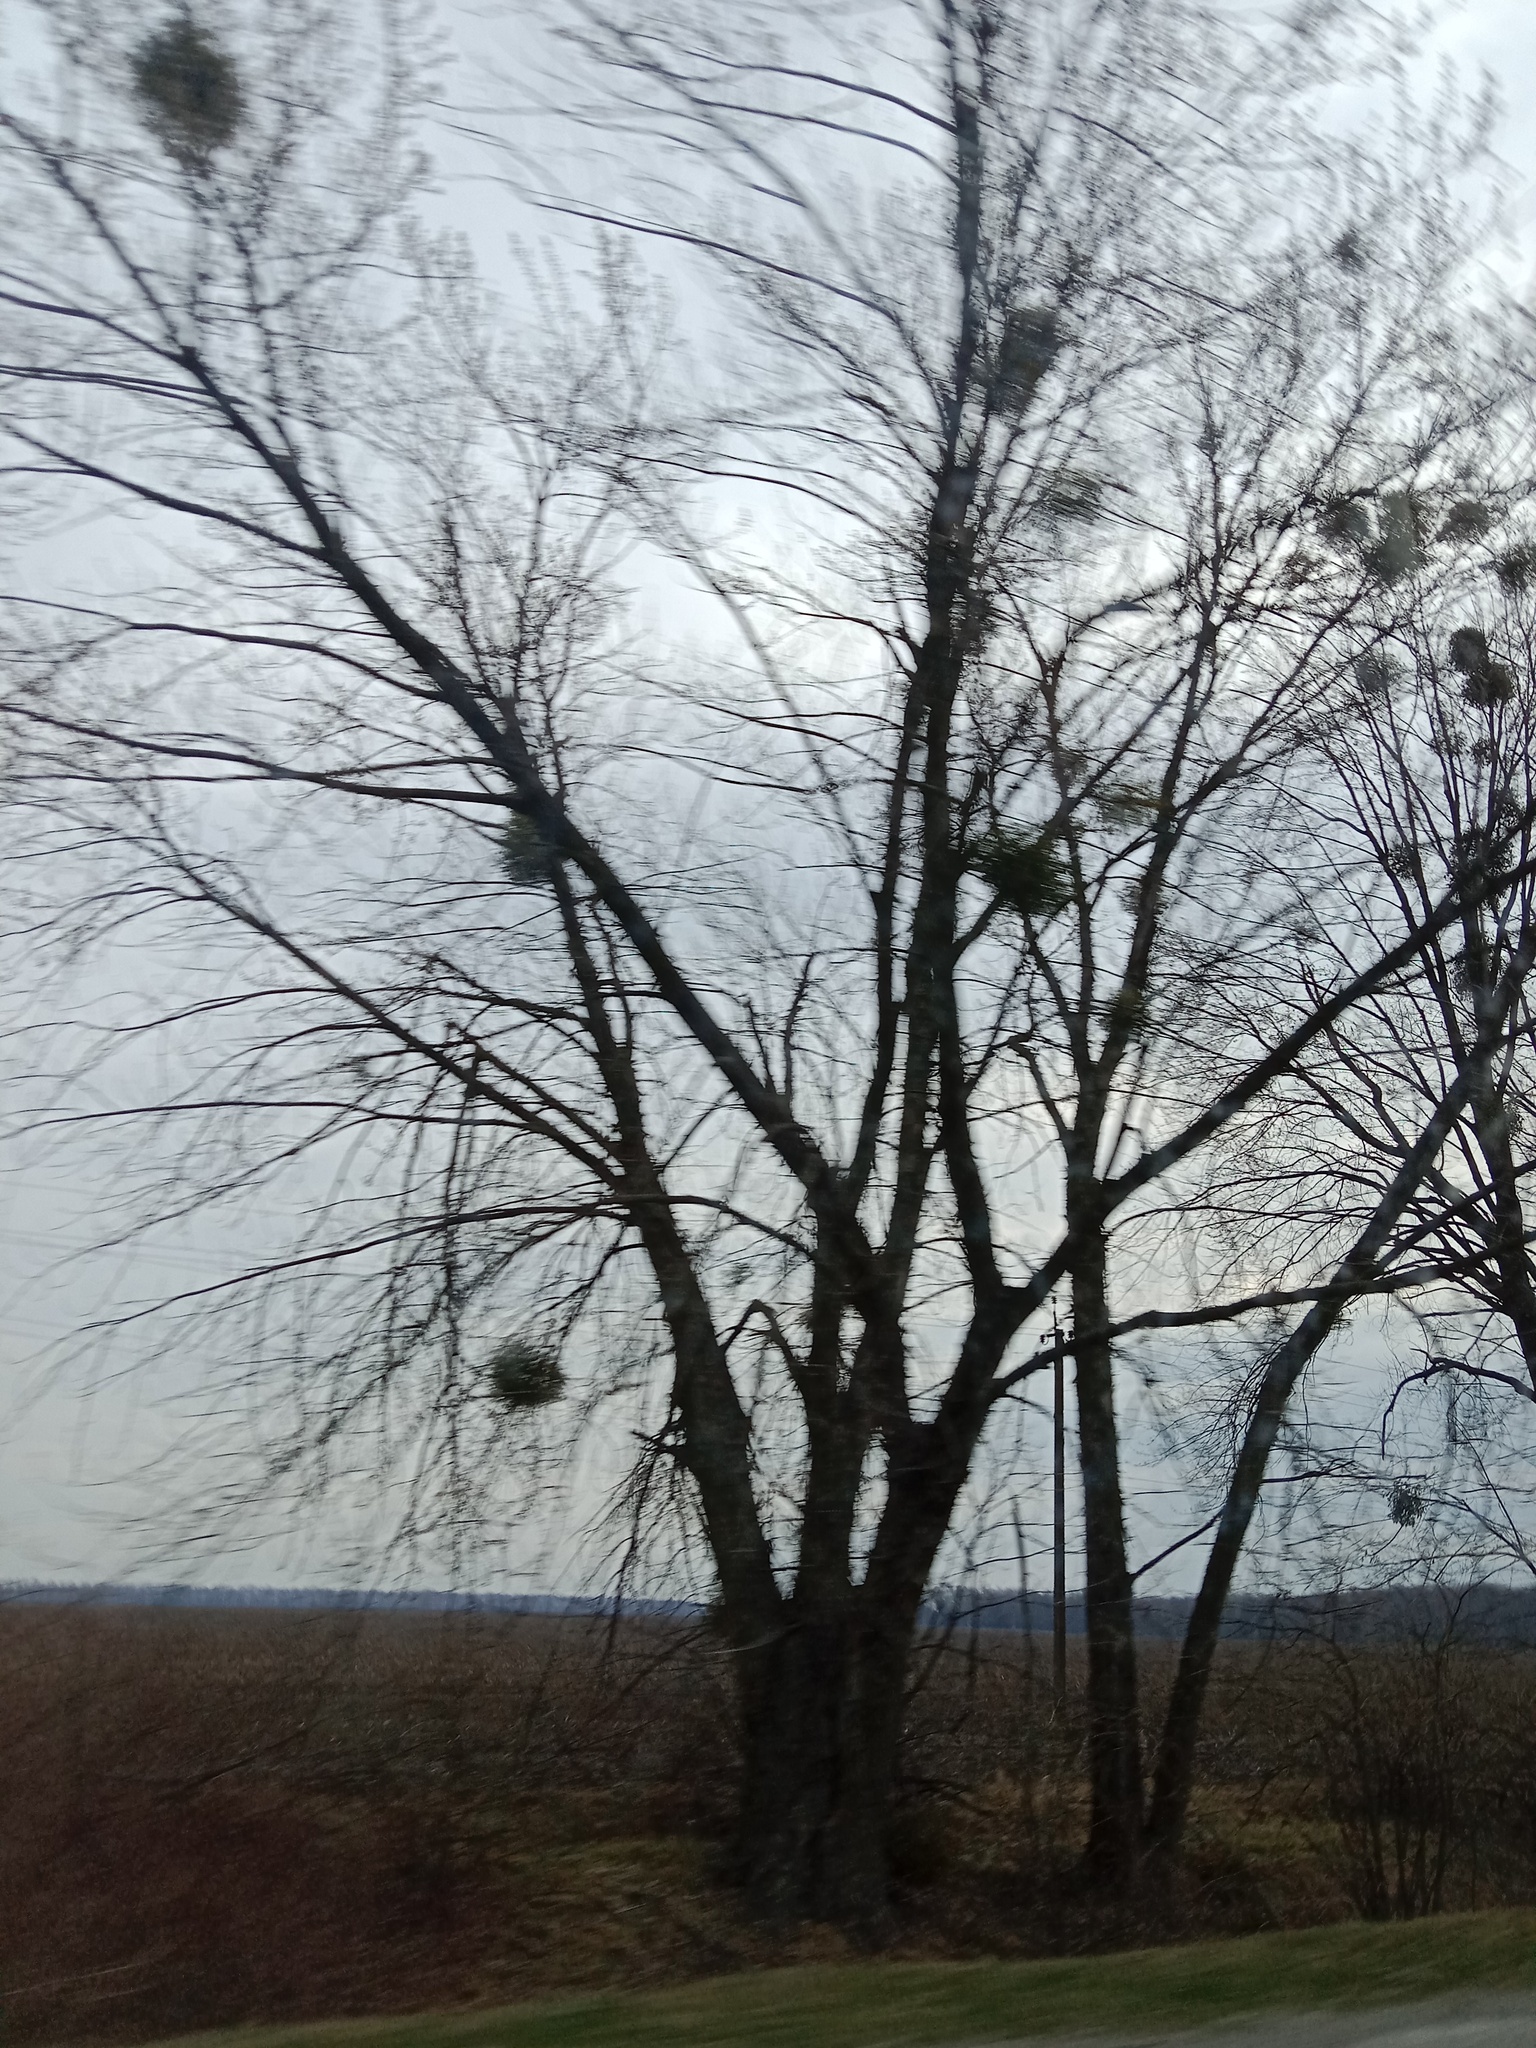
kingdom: Plantae
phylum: Tracheophyta
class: Magnoliopsida
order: Santalales
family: Viscaceae
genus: Viscum
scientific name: Viscum album
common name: Mistletoe
